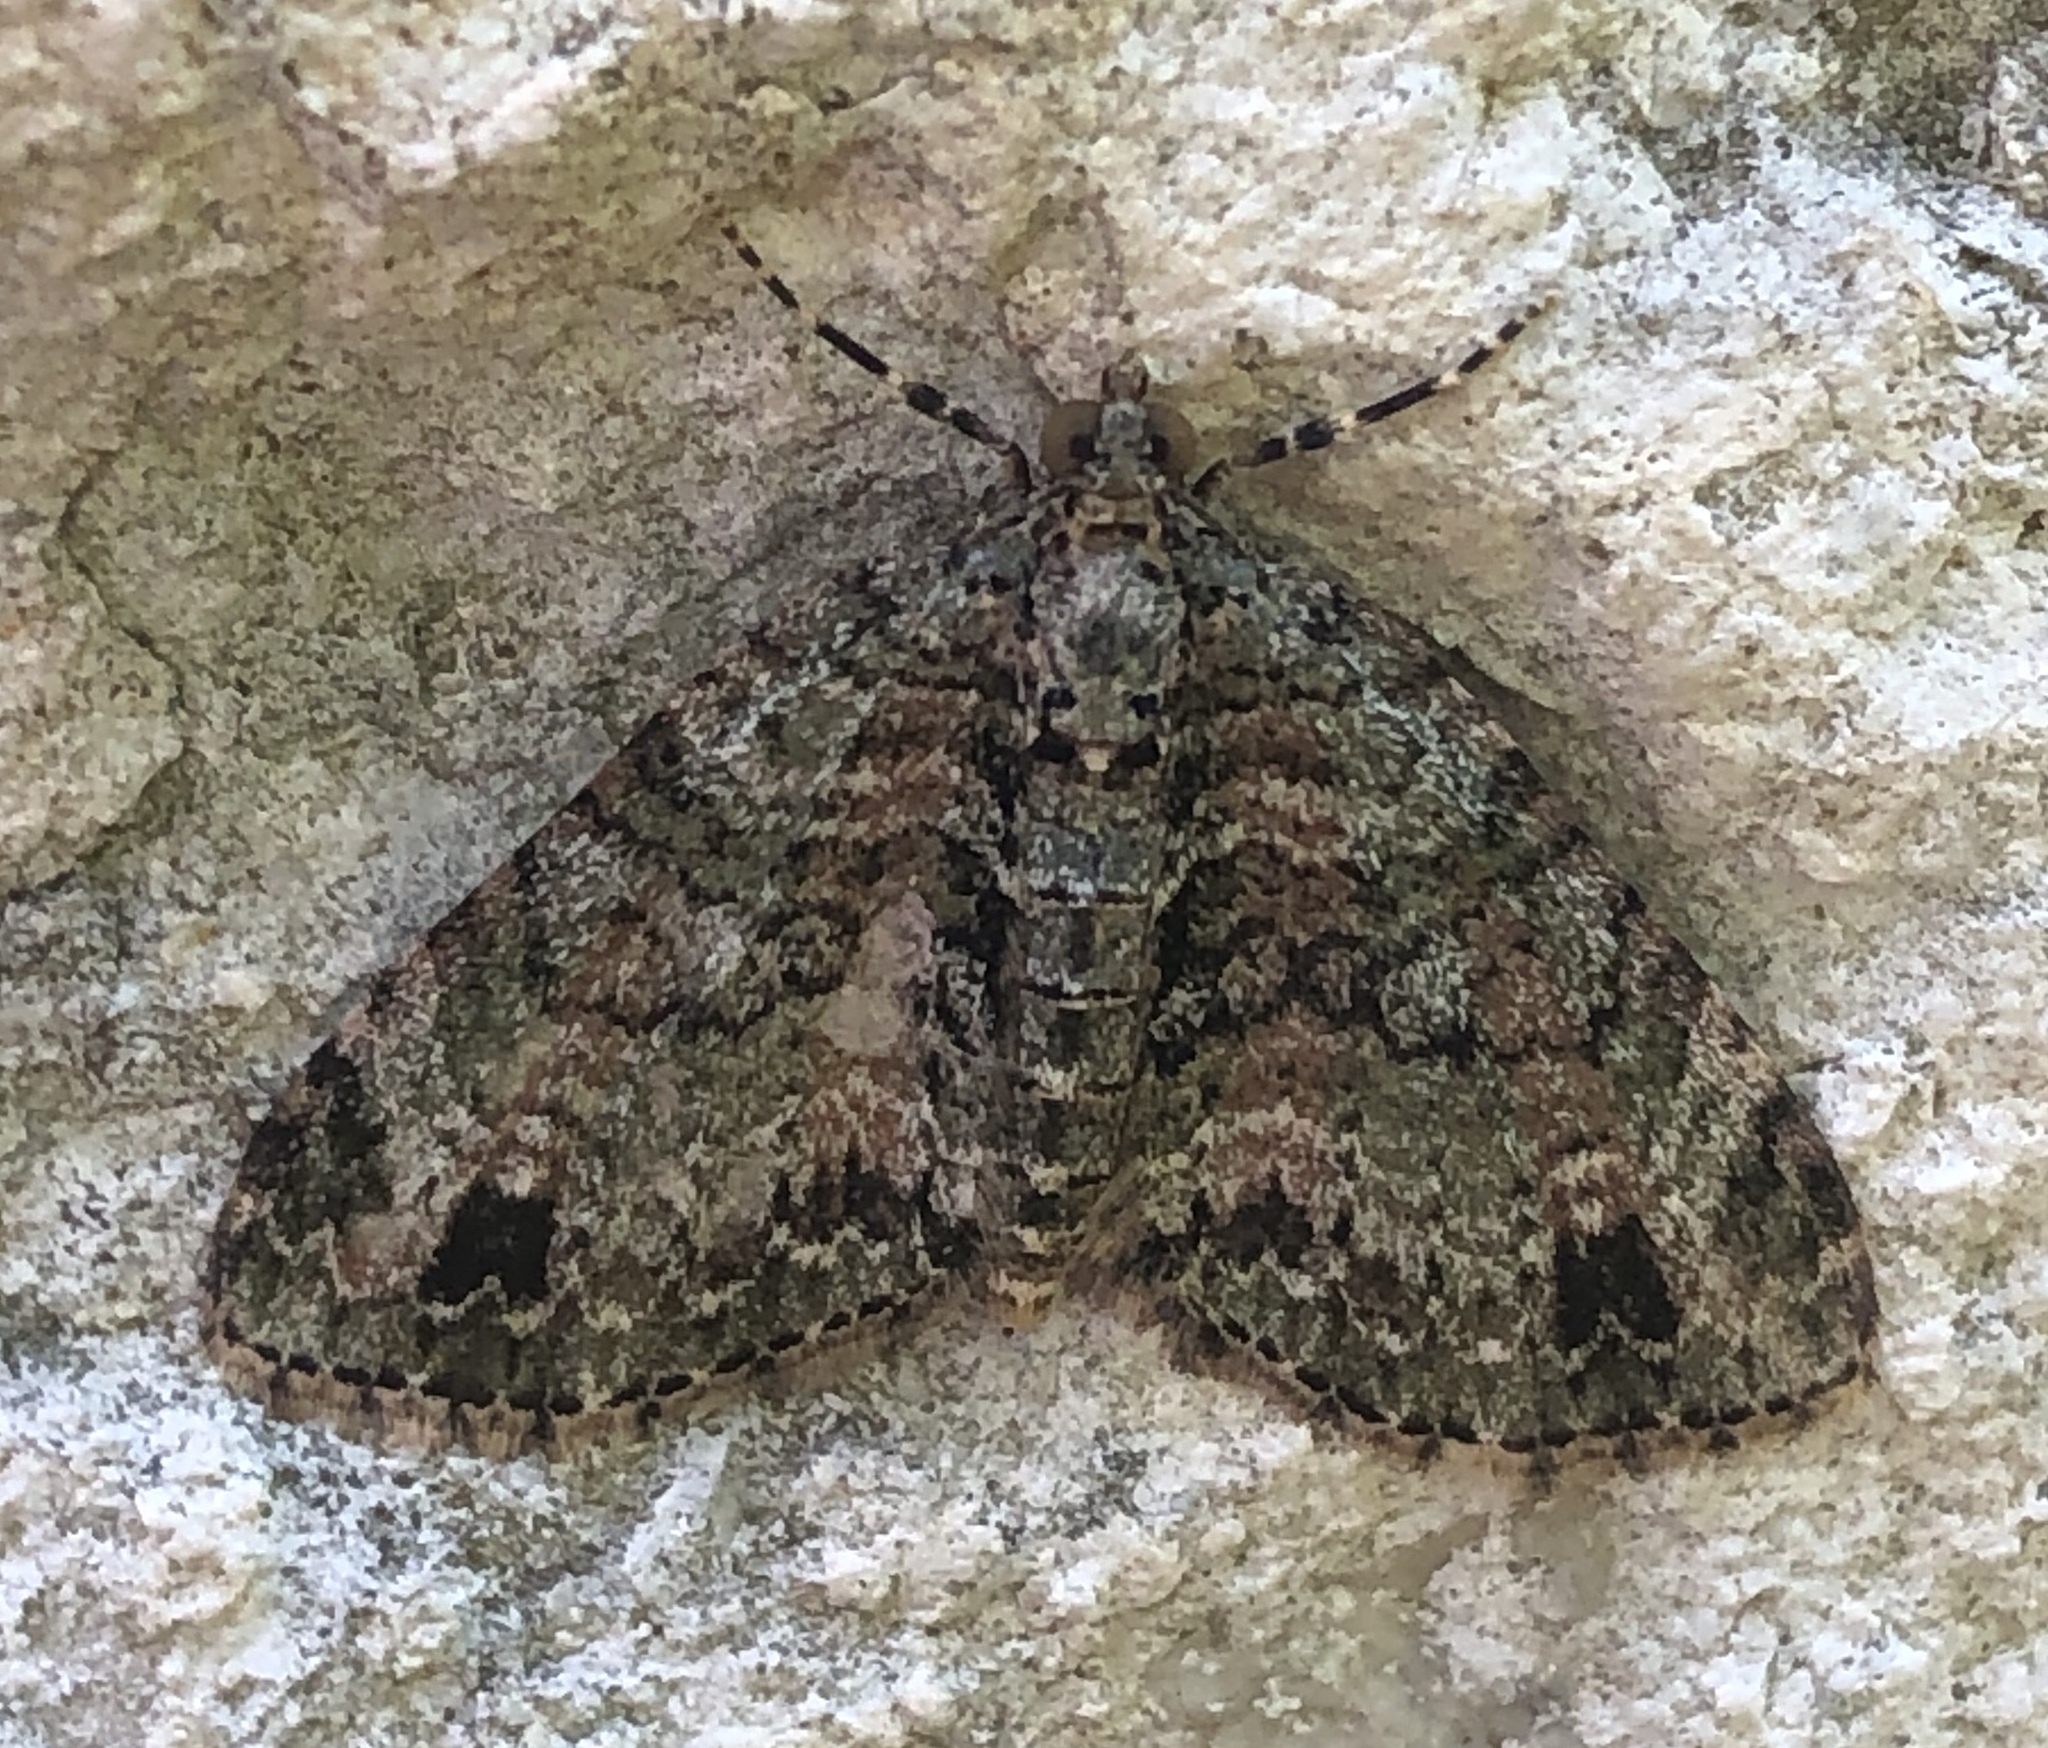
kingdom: Animalia
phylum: Arthropoda
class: Insecta
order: Lepidoptera
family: Geometridae
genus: Hammaptera
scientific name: Hammaptera parinotata
